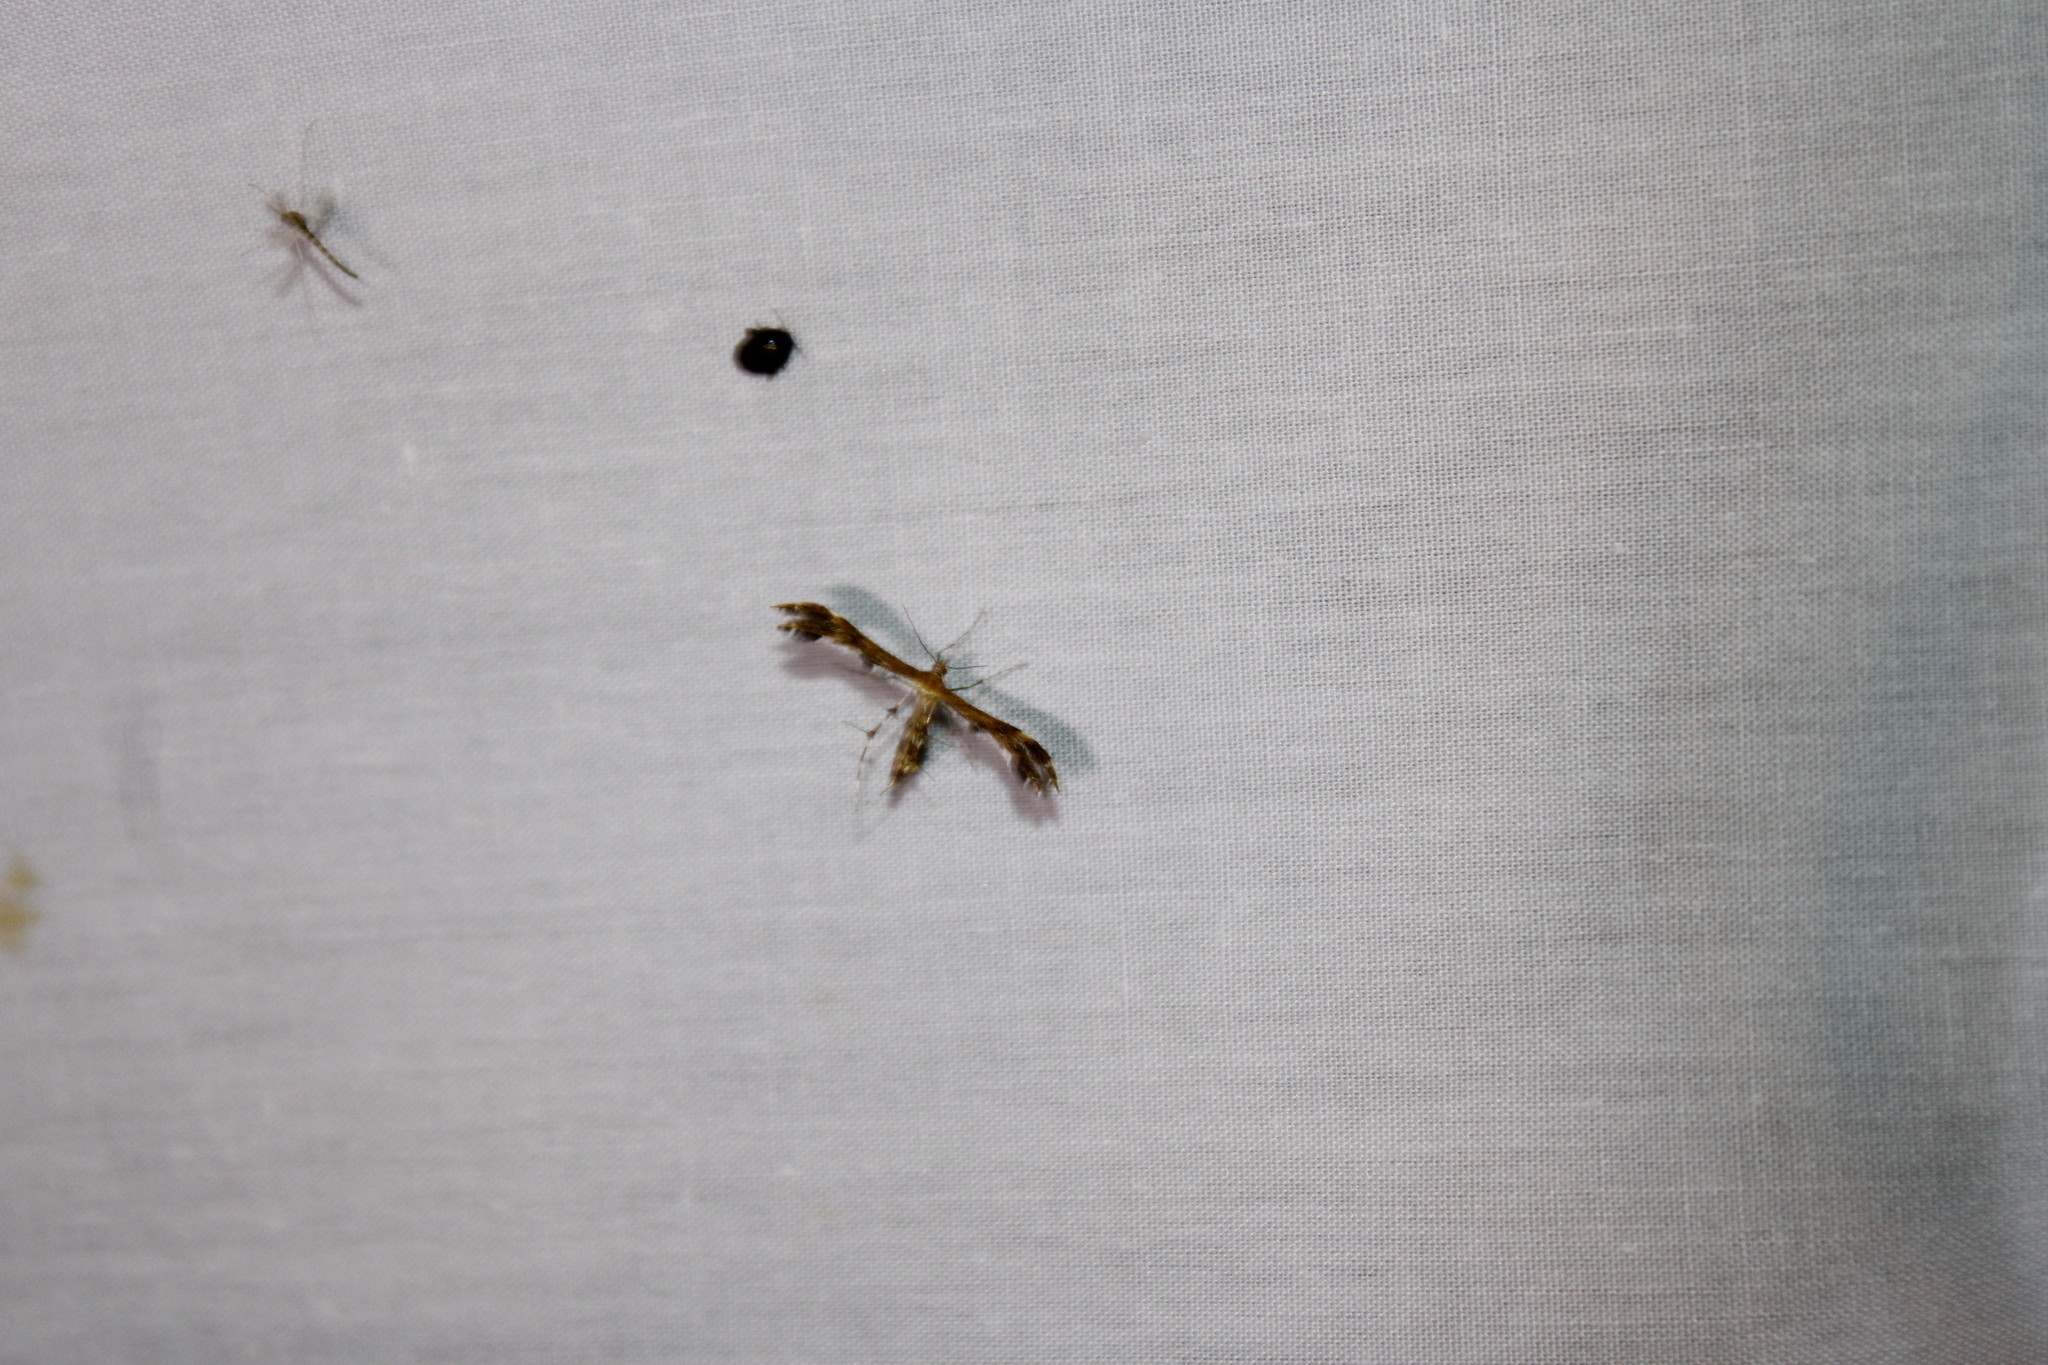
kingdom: Animalia
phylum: Arthropoda
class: Insecta
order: Lepidoptera
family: Pterophoridae
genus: Dejongia
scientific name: Dejongia lobidactylus
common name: Lobed plume moth
